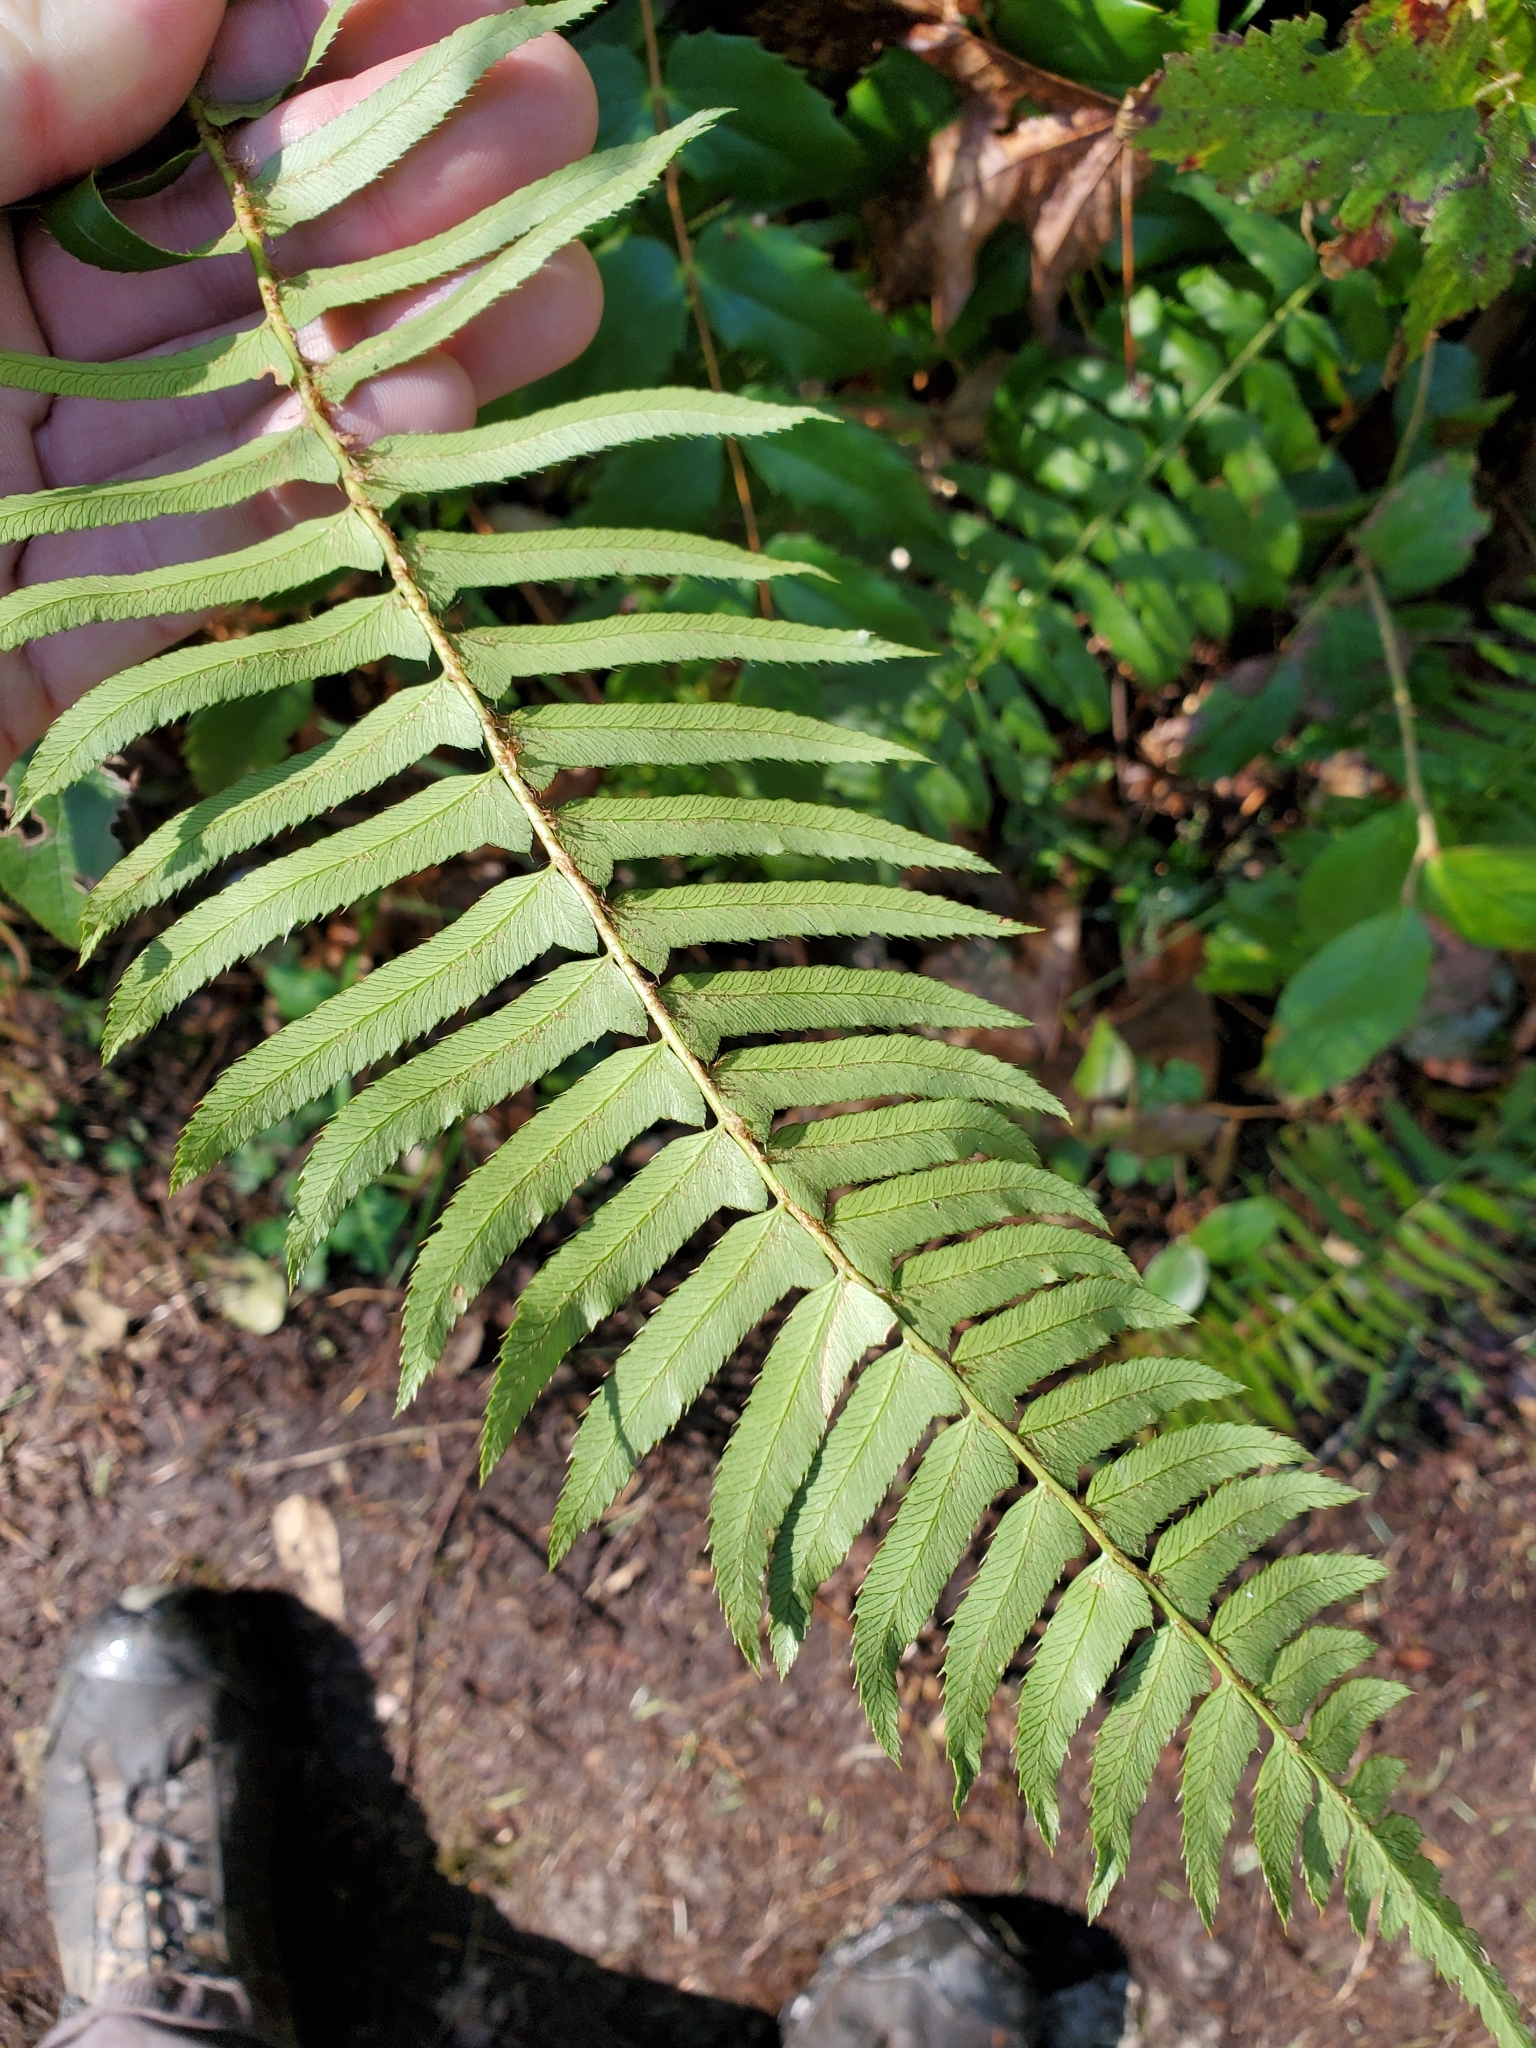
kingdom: Plantae
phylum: Tracheophyta
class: Polypodiopsida
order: Polypodiales
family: Dryopteridaceae
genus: Polystichum
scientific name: Polystichum munitum
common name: Western sword-fern
